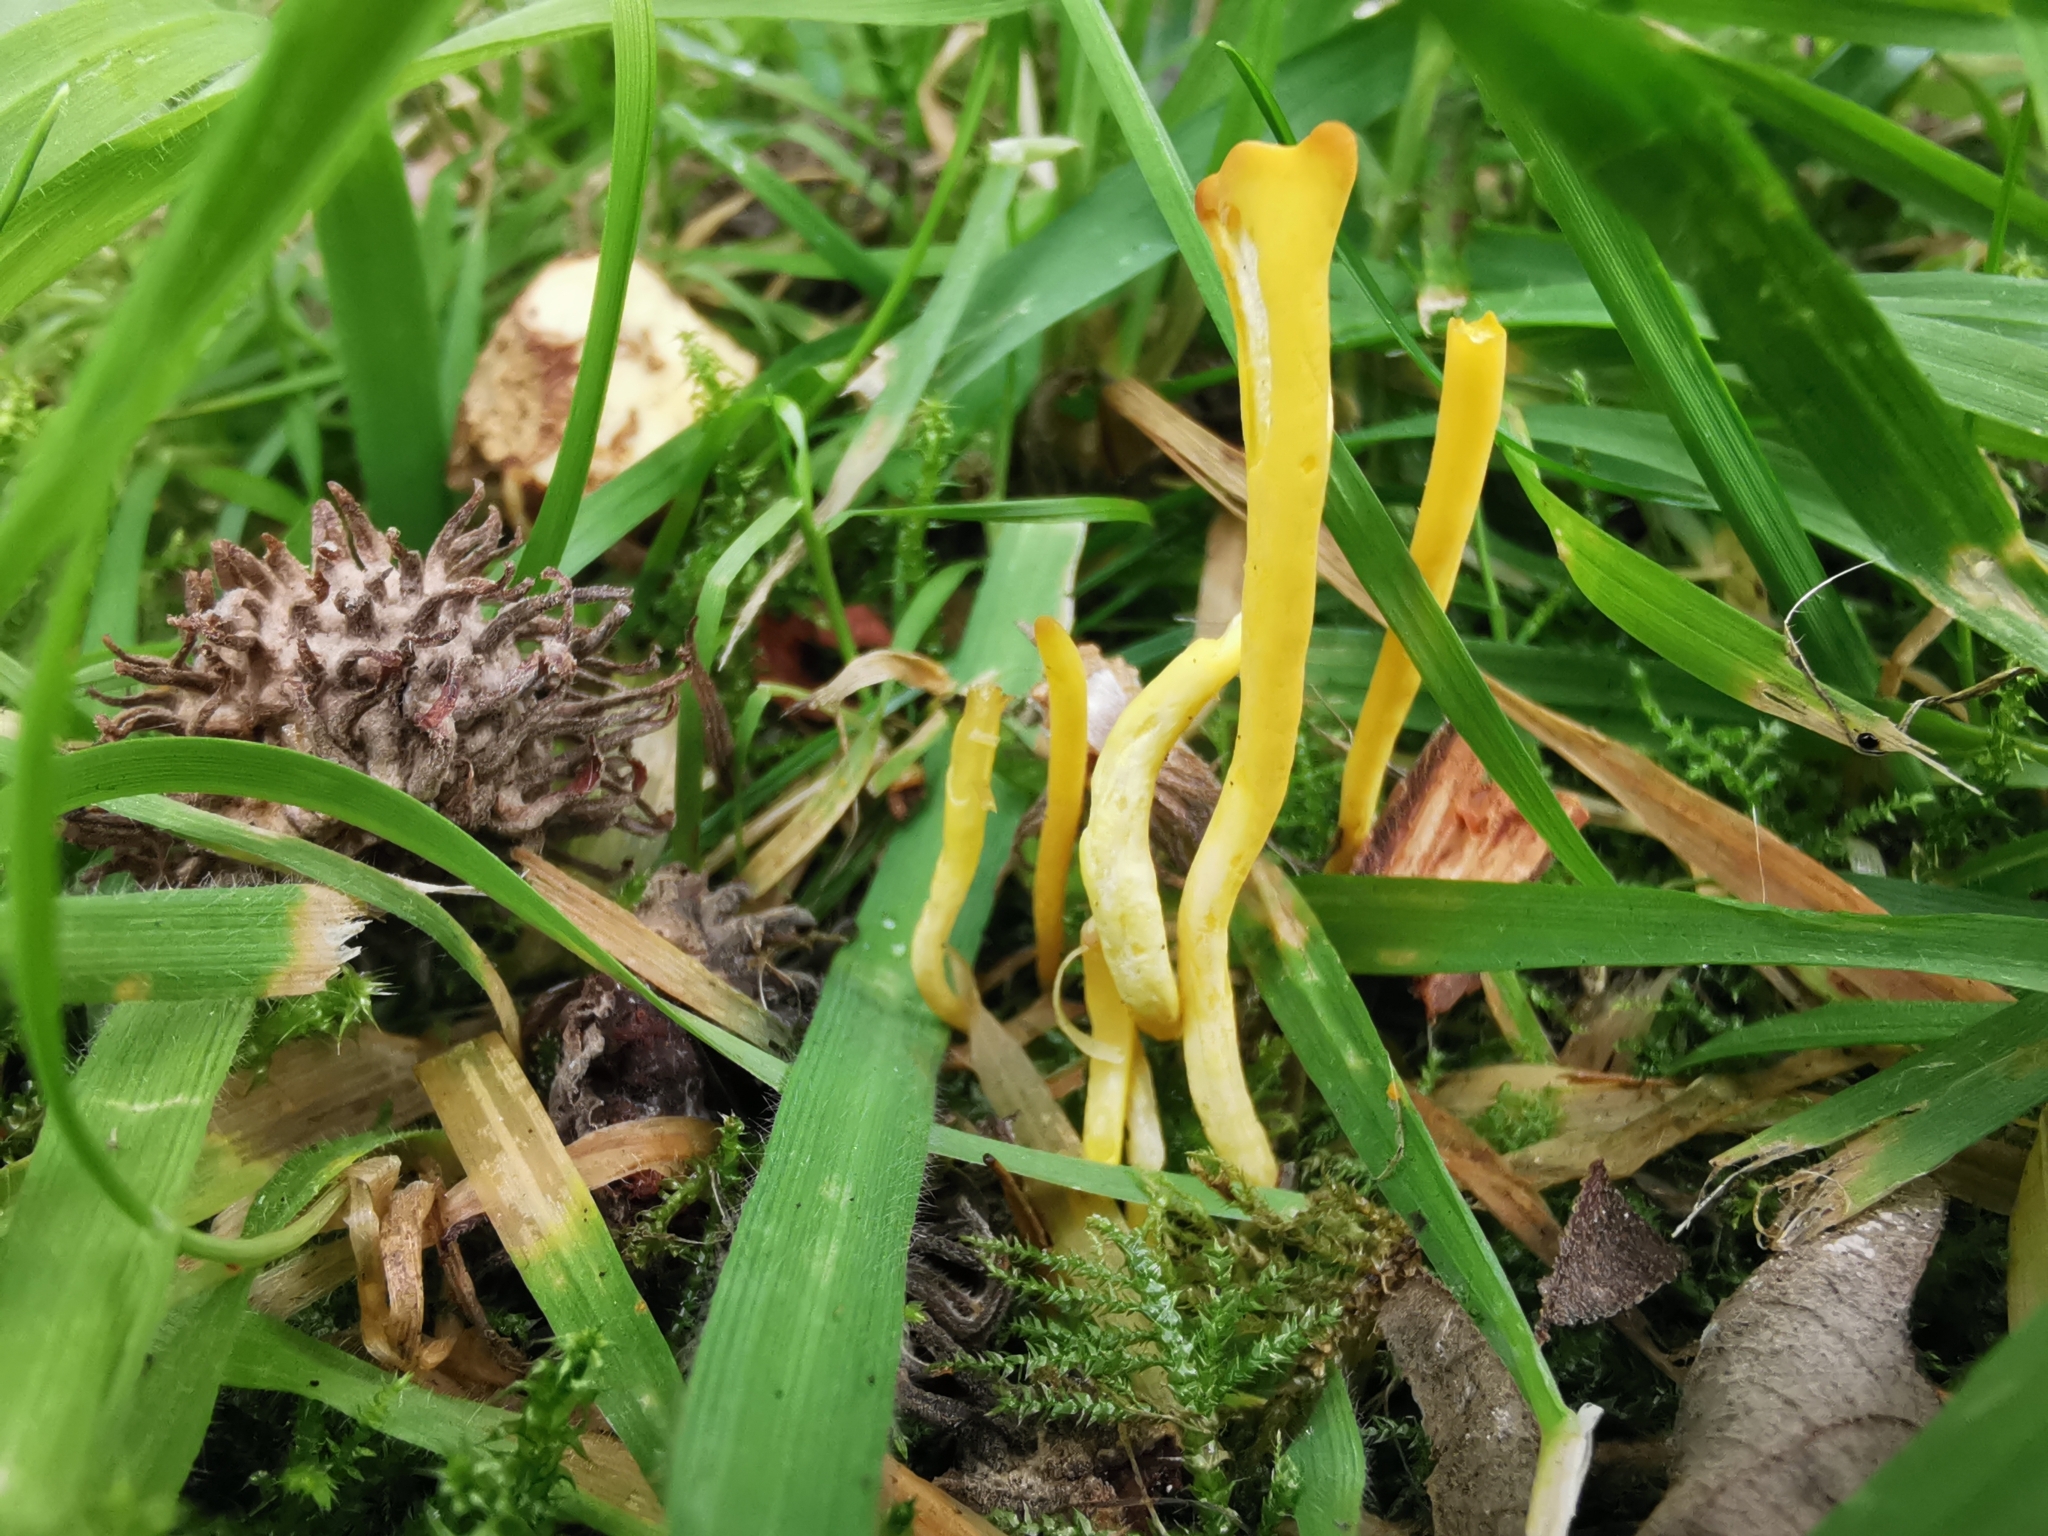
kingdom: Fungi
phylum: Basidiomycota
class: Agaricomycetes
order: Agaricales
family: Clavariaceae
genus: Clavulinopsis
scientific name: Clavulinopsis helvola
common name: Yellow club
